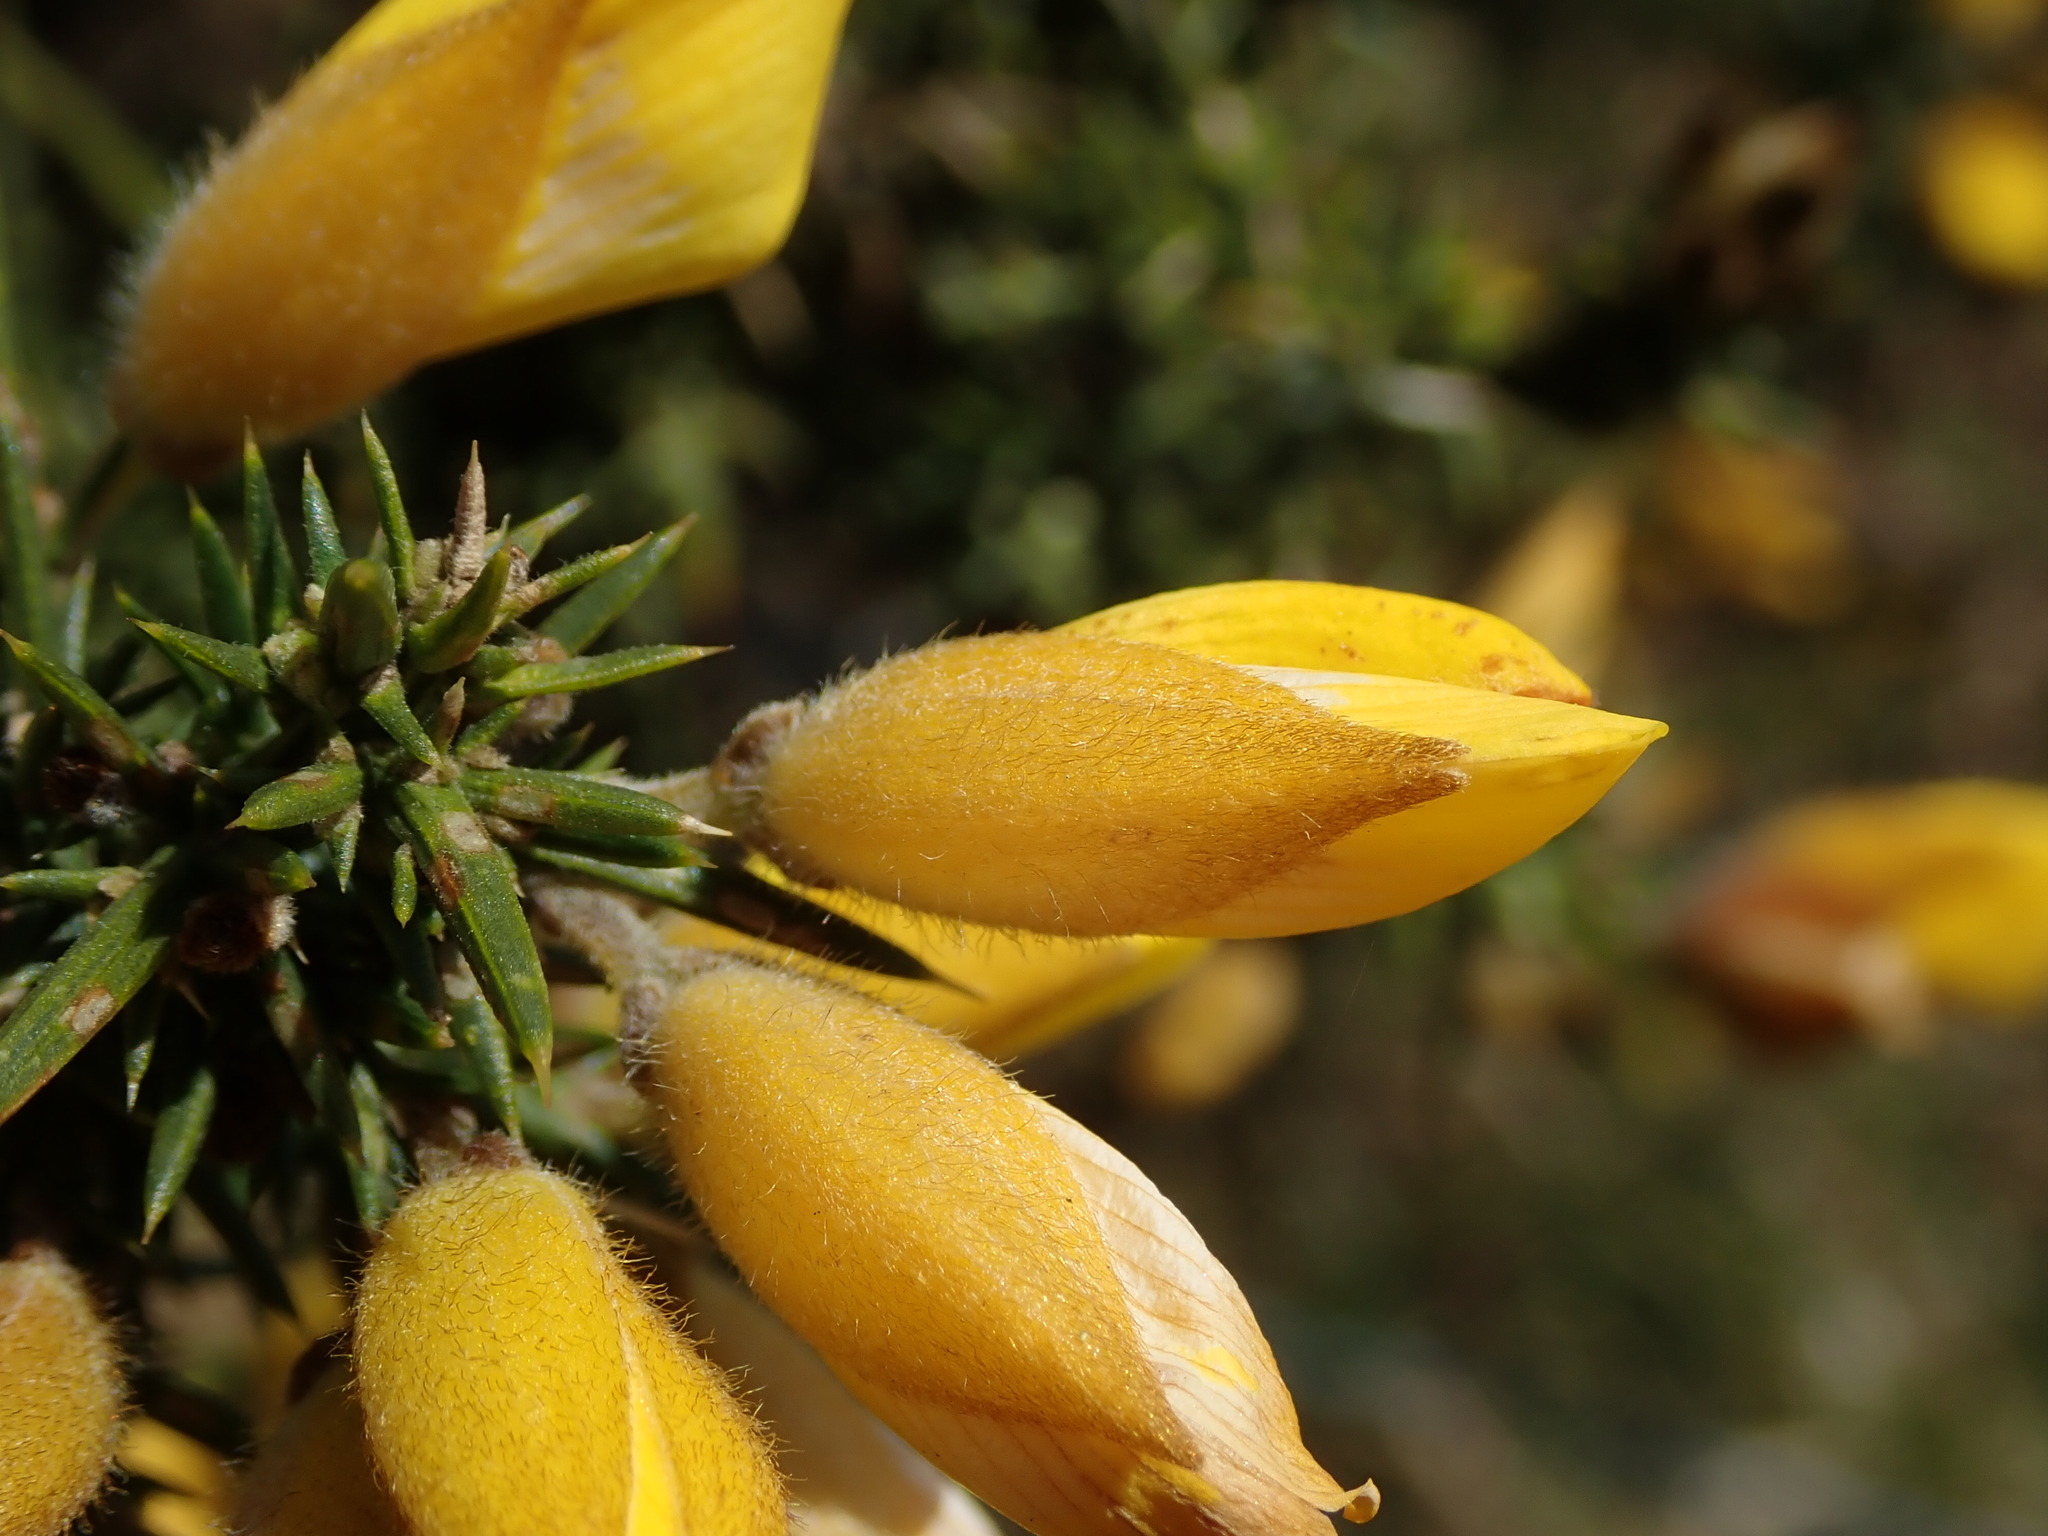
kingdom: Plantae
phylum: Tracheophyta
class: Magnoliopsida
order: Fabales
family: Fabaceae
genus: Ulex
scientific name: Ulex europaeus
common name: Common gorse
